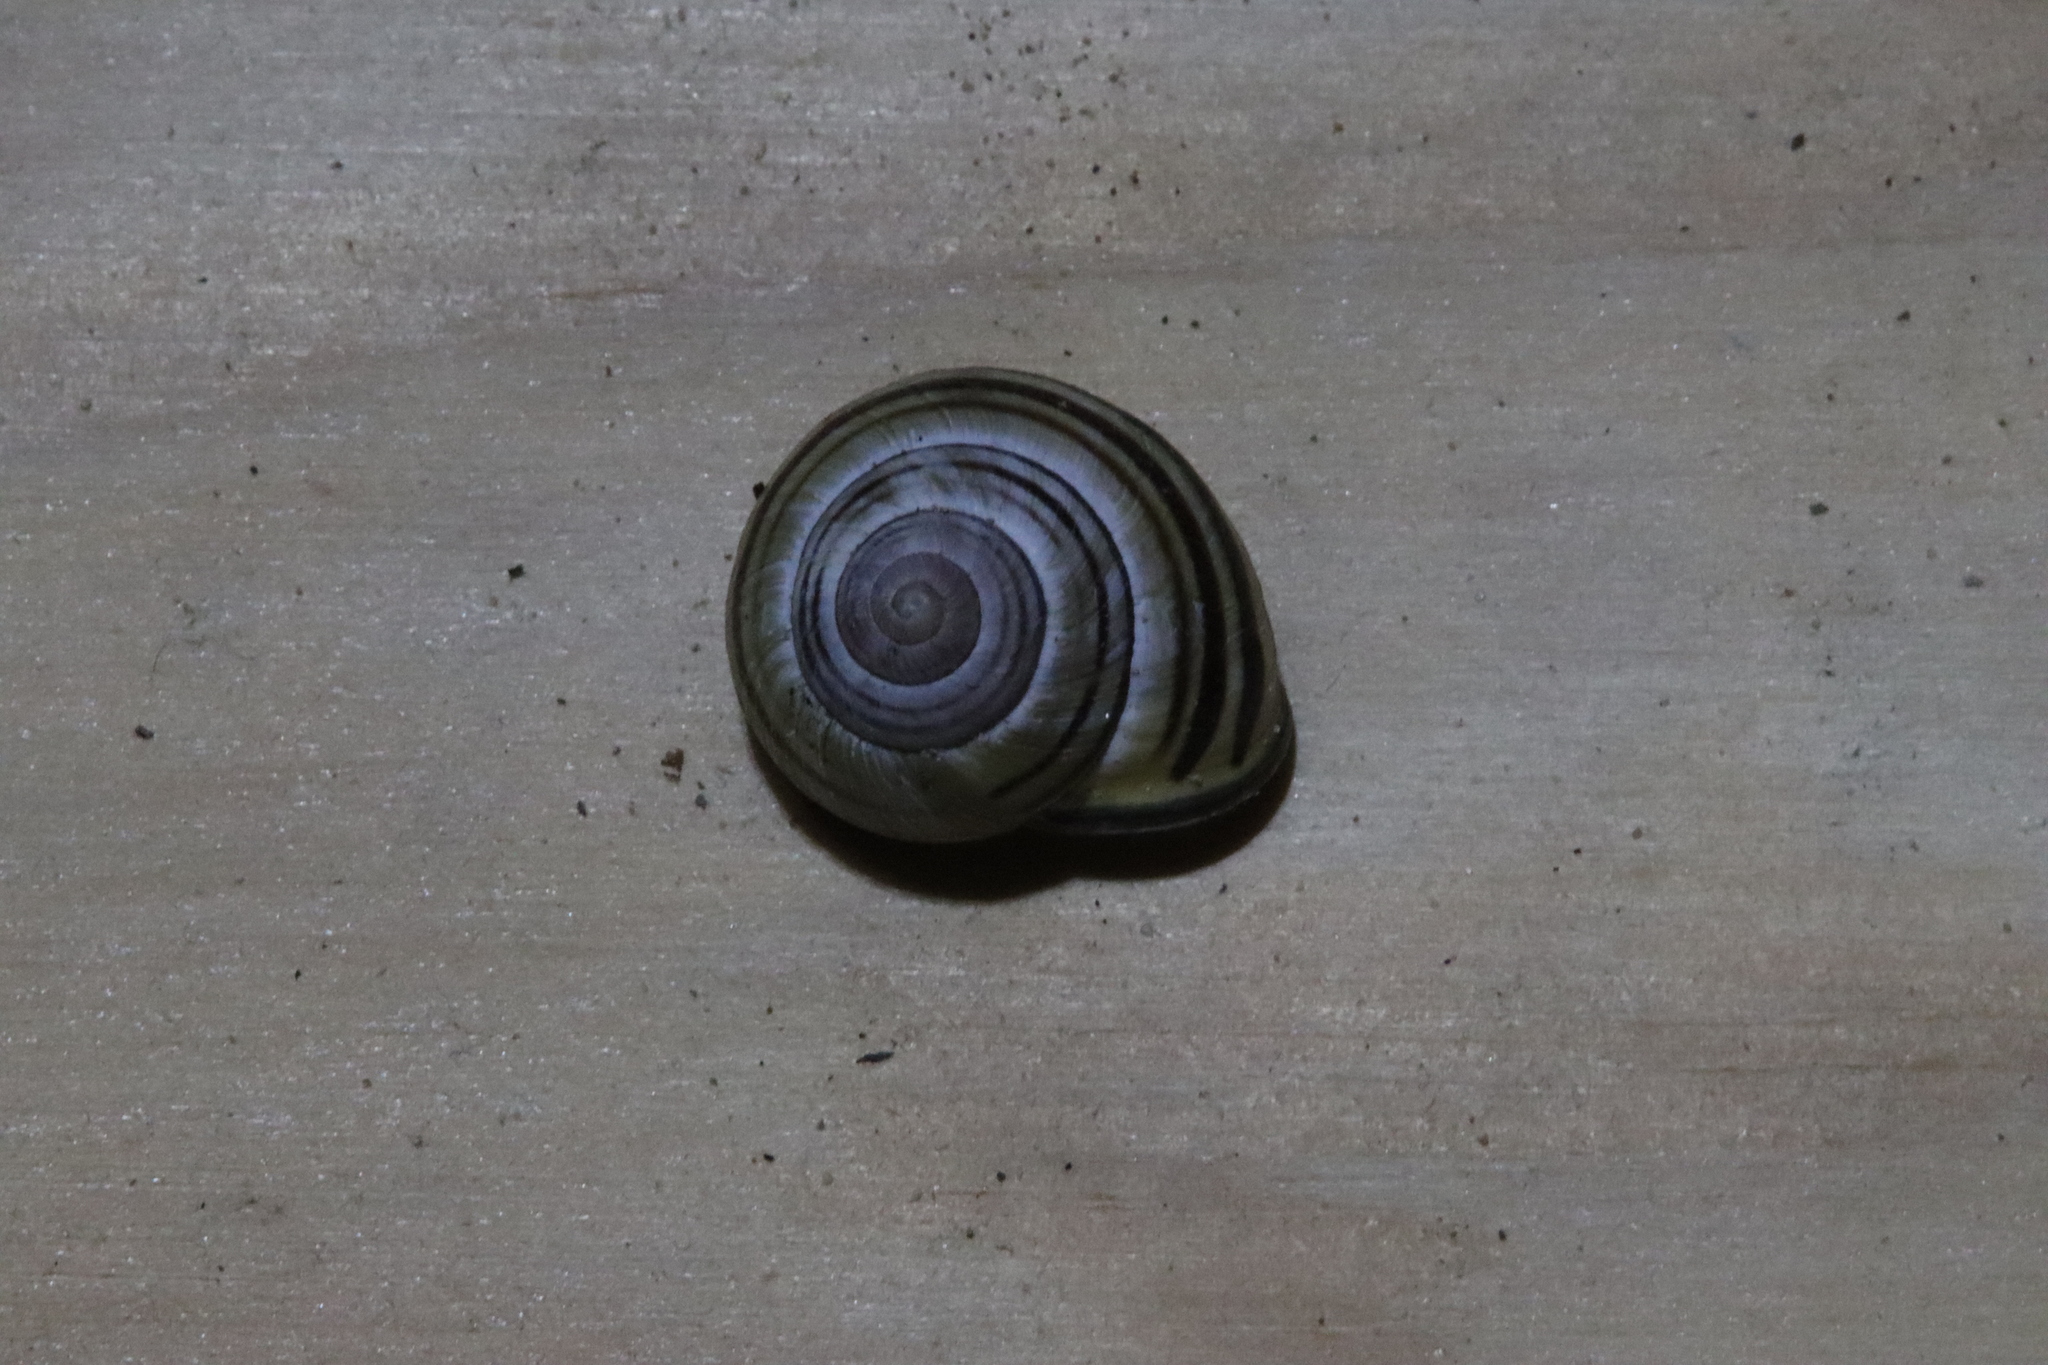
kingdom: Animalia
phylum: Mollusca
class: Gastropoda
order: Stylommatophora
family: Helicidae
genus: Cepaea
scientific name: Cepaea nemoralis
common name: Grovesnail
